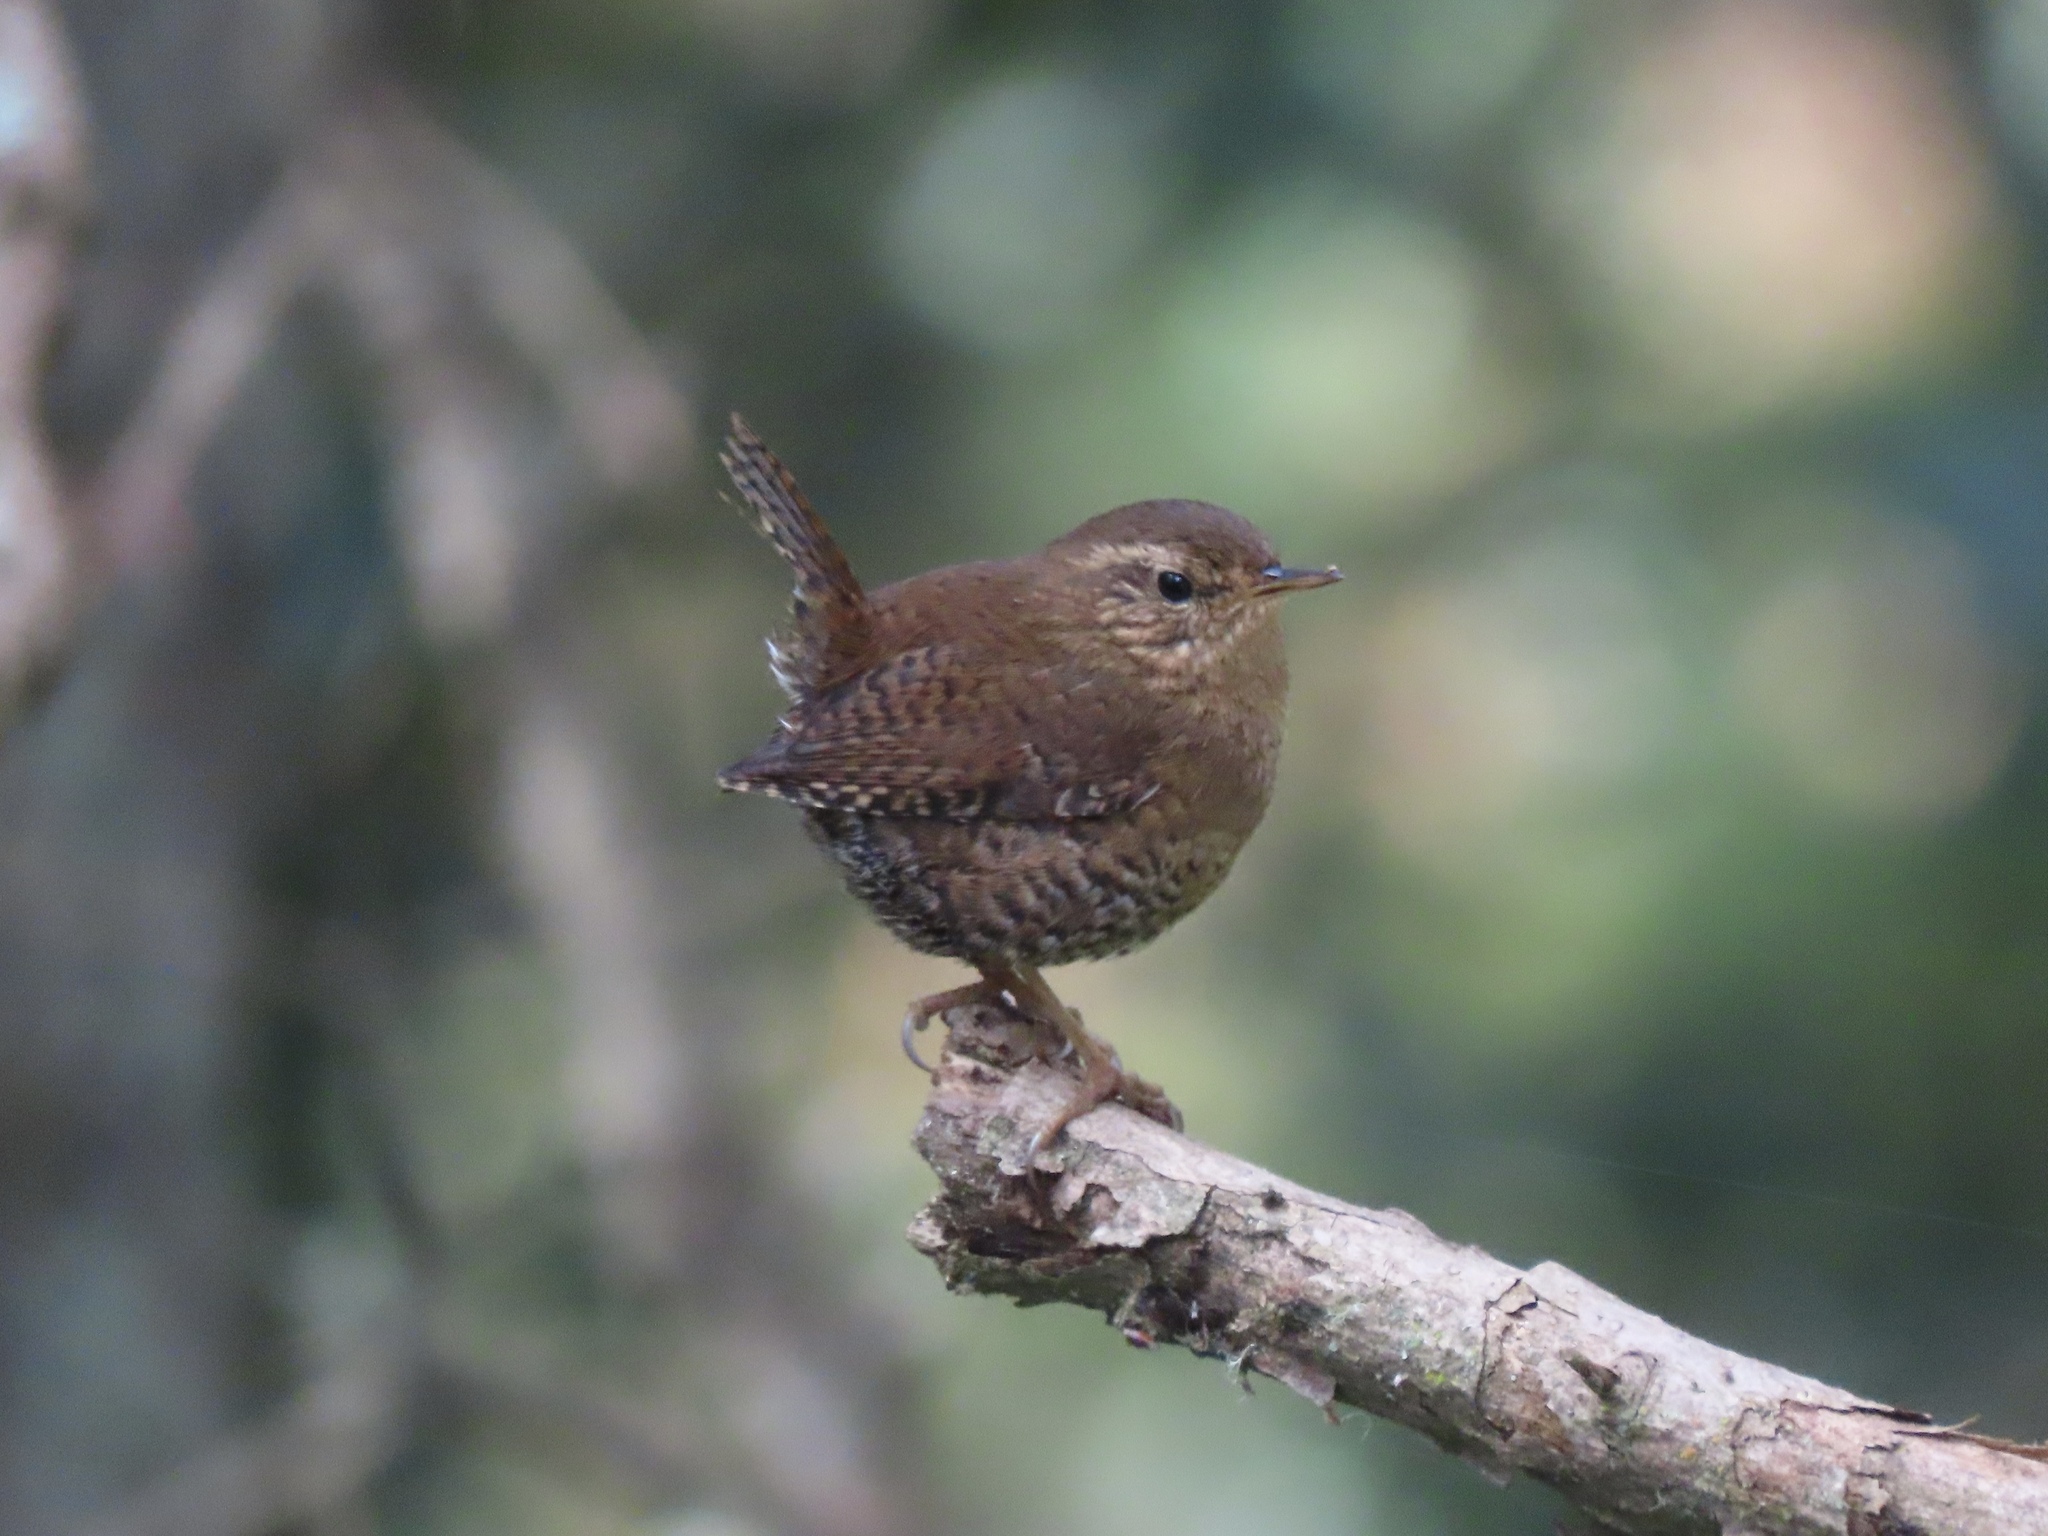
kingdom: Animalia
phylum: Chordata
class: Aves
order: Passeriformes
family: Troglodytidae
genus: Troglodytes
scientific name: Troglodytes pacificus
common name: Pacific wren
